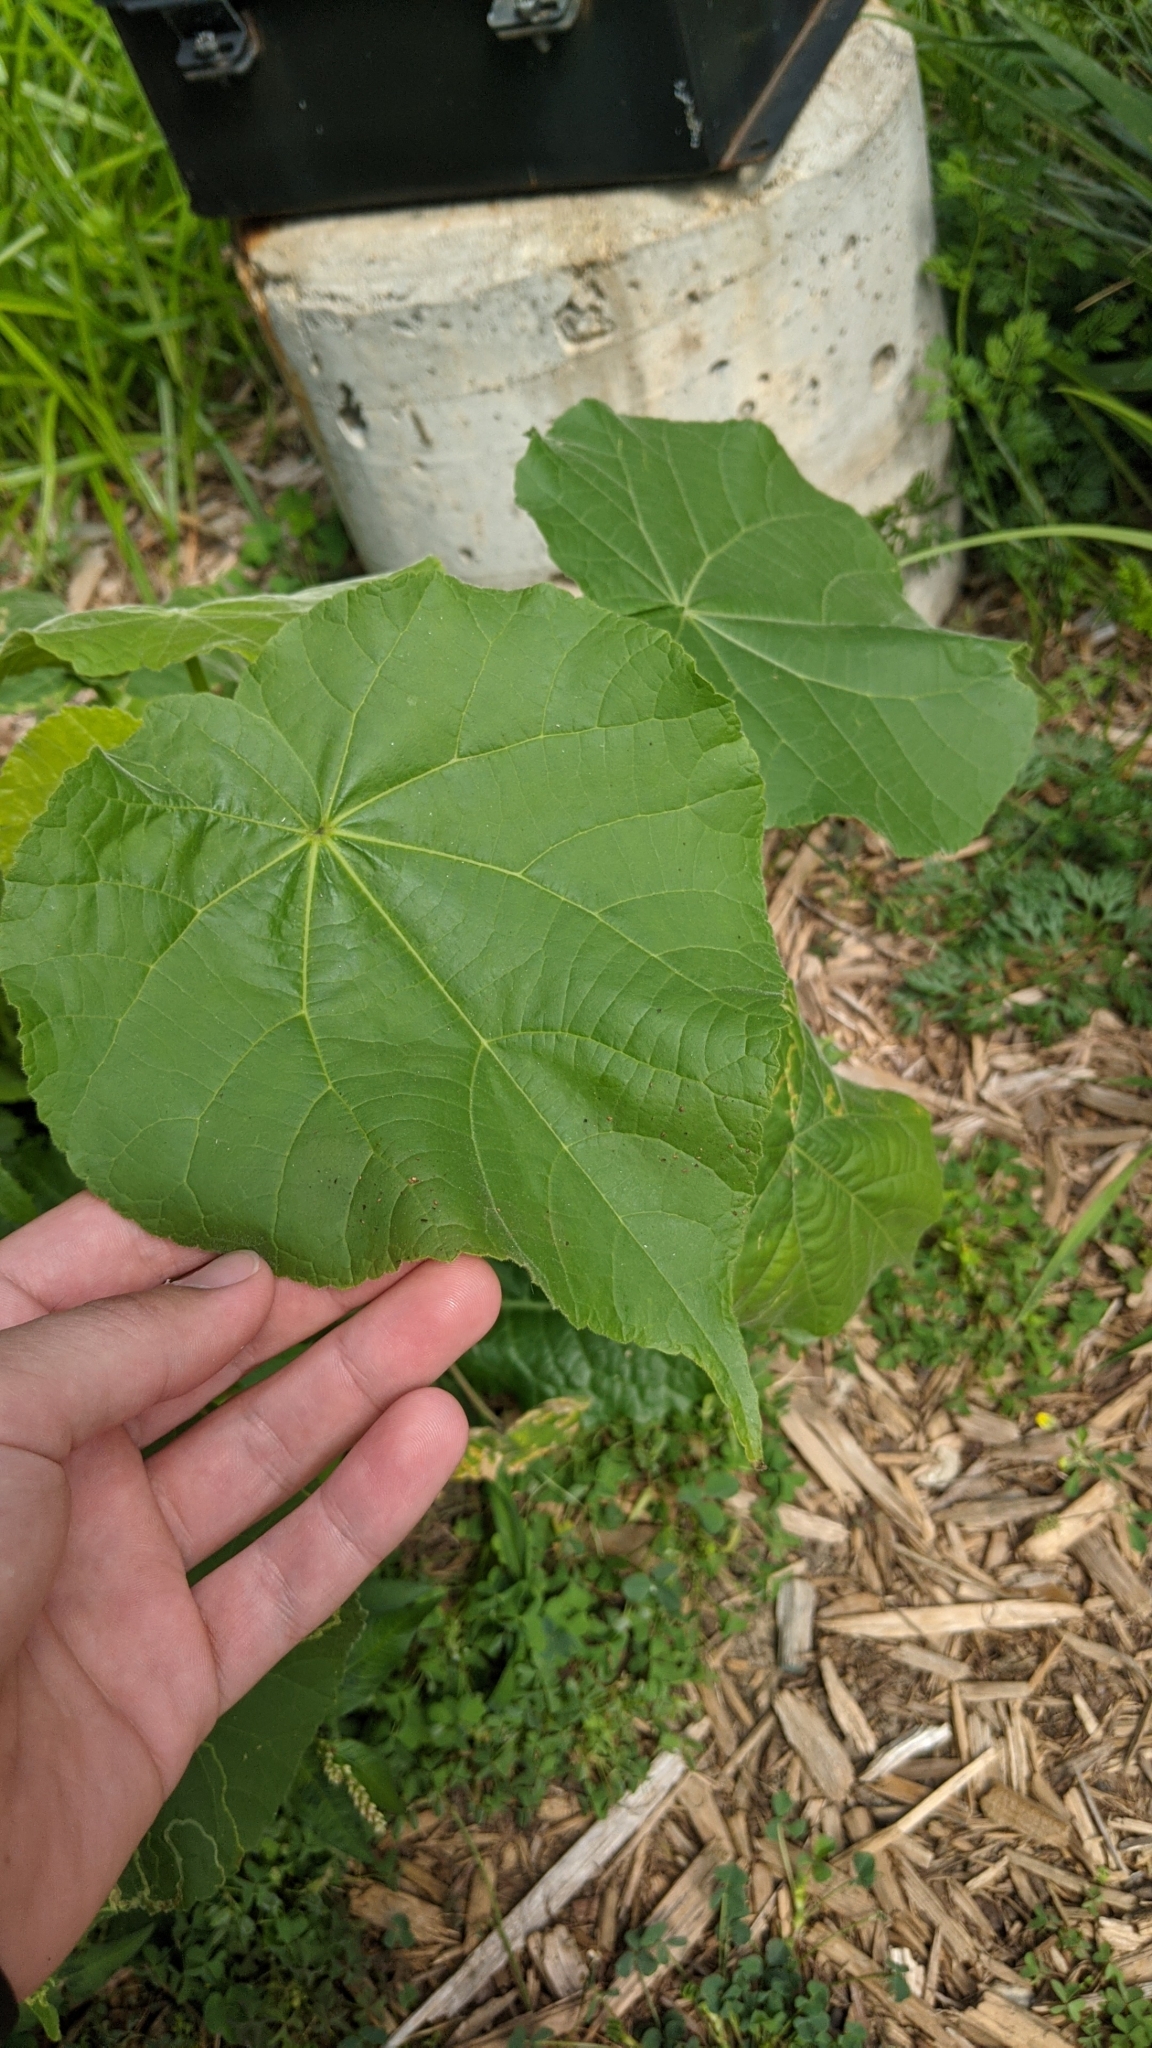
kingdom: Plantae
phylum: Tracheophyta
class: Magnoliopsida
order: Malvales
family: Malvaceae
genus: Abutilon
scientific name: Abutilon theophrasti
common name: Velvetleaf
